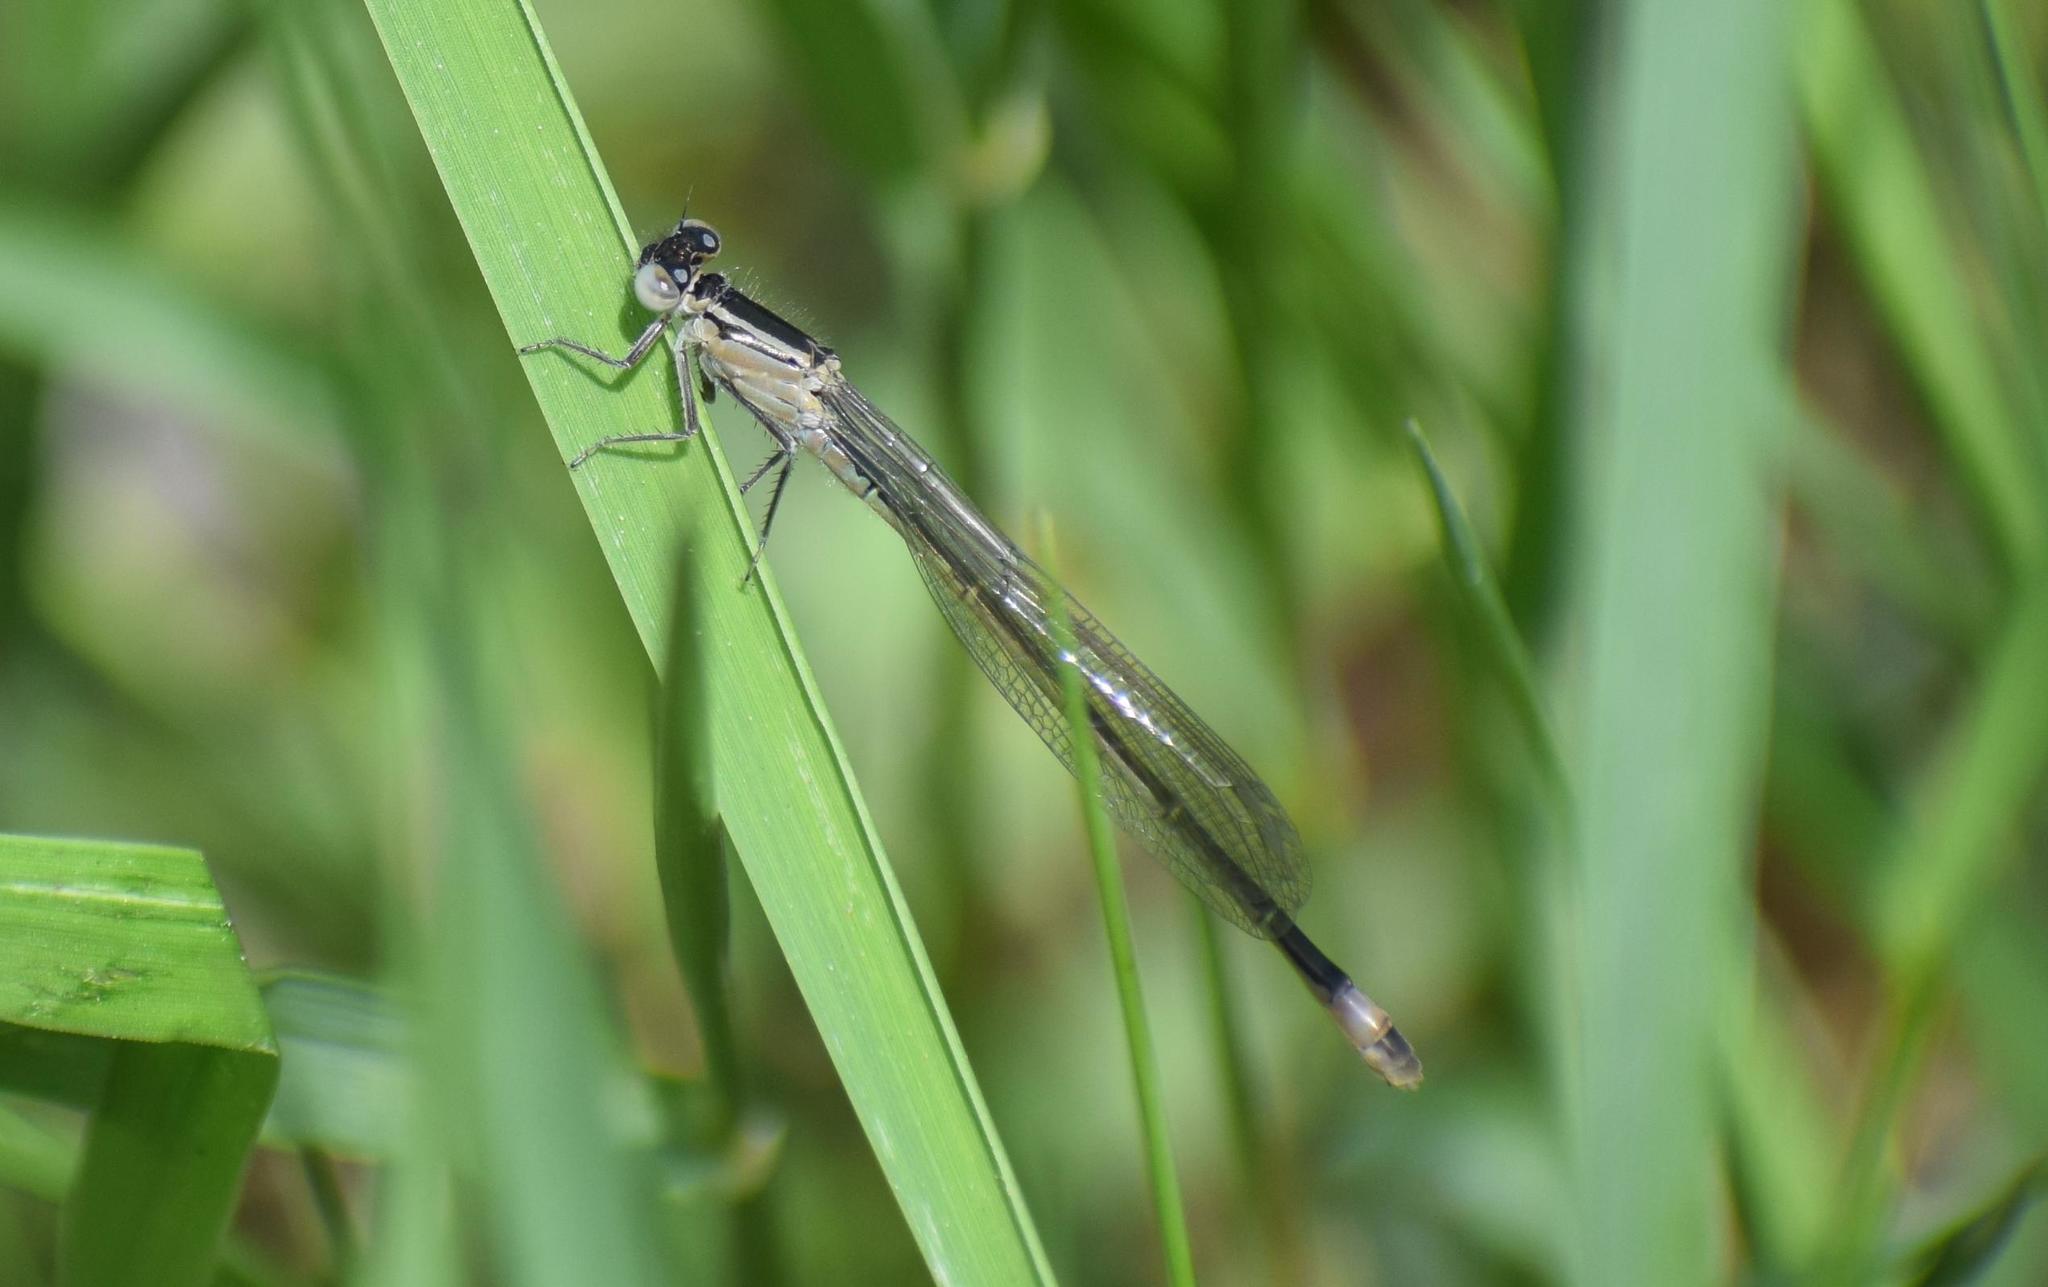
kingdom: Animalia
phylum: Arthropoda
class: Insecta
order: Odonata
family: Coenagrionidae
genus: Ischnura
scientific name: Ischnura elegans
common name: Blue-tailed damselfly
